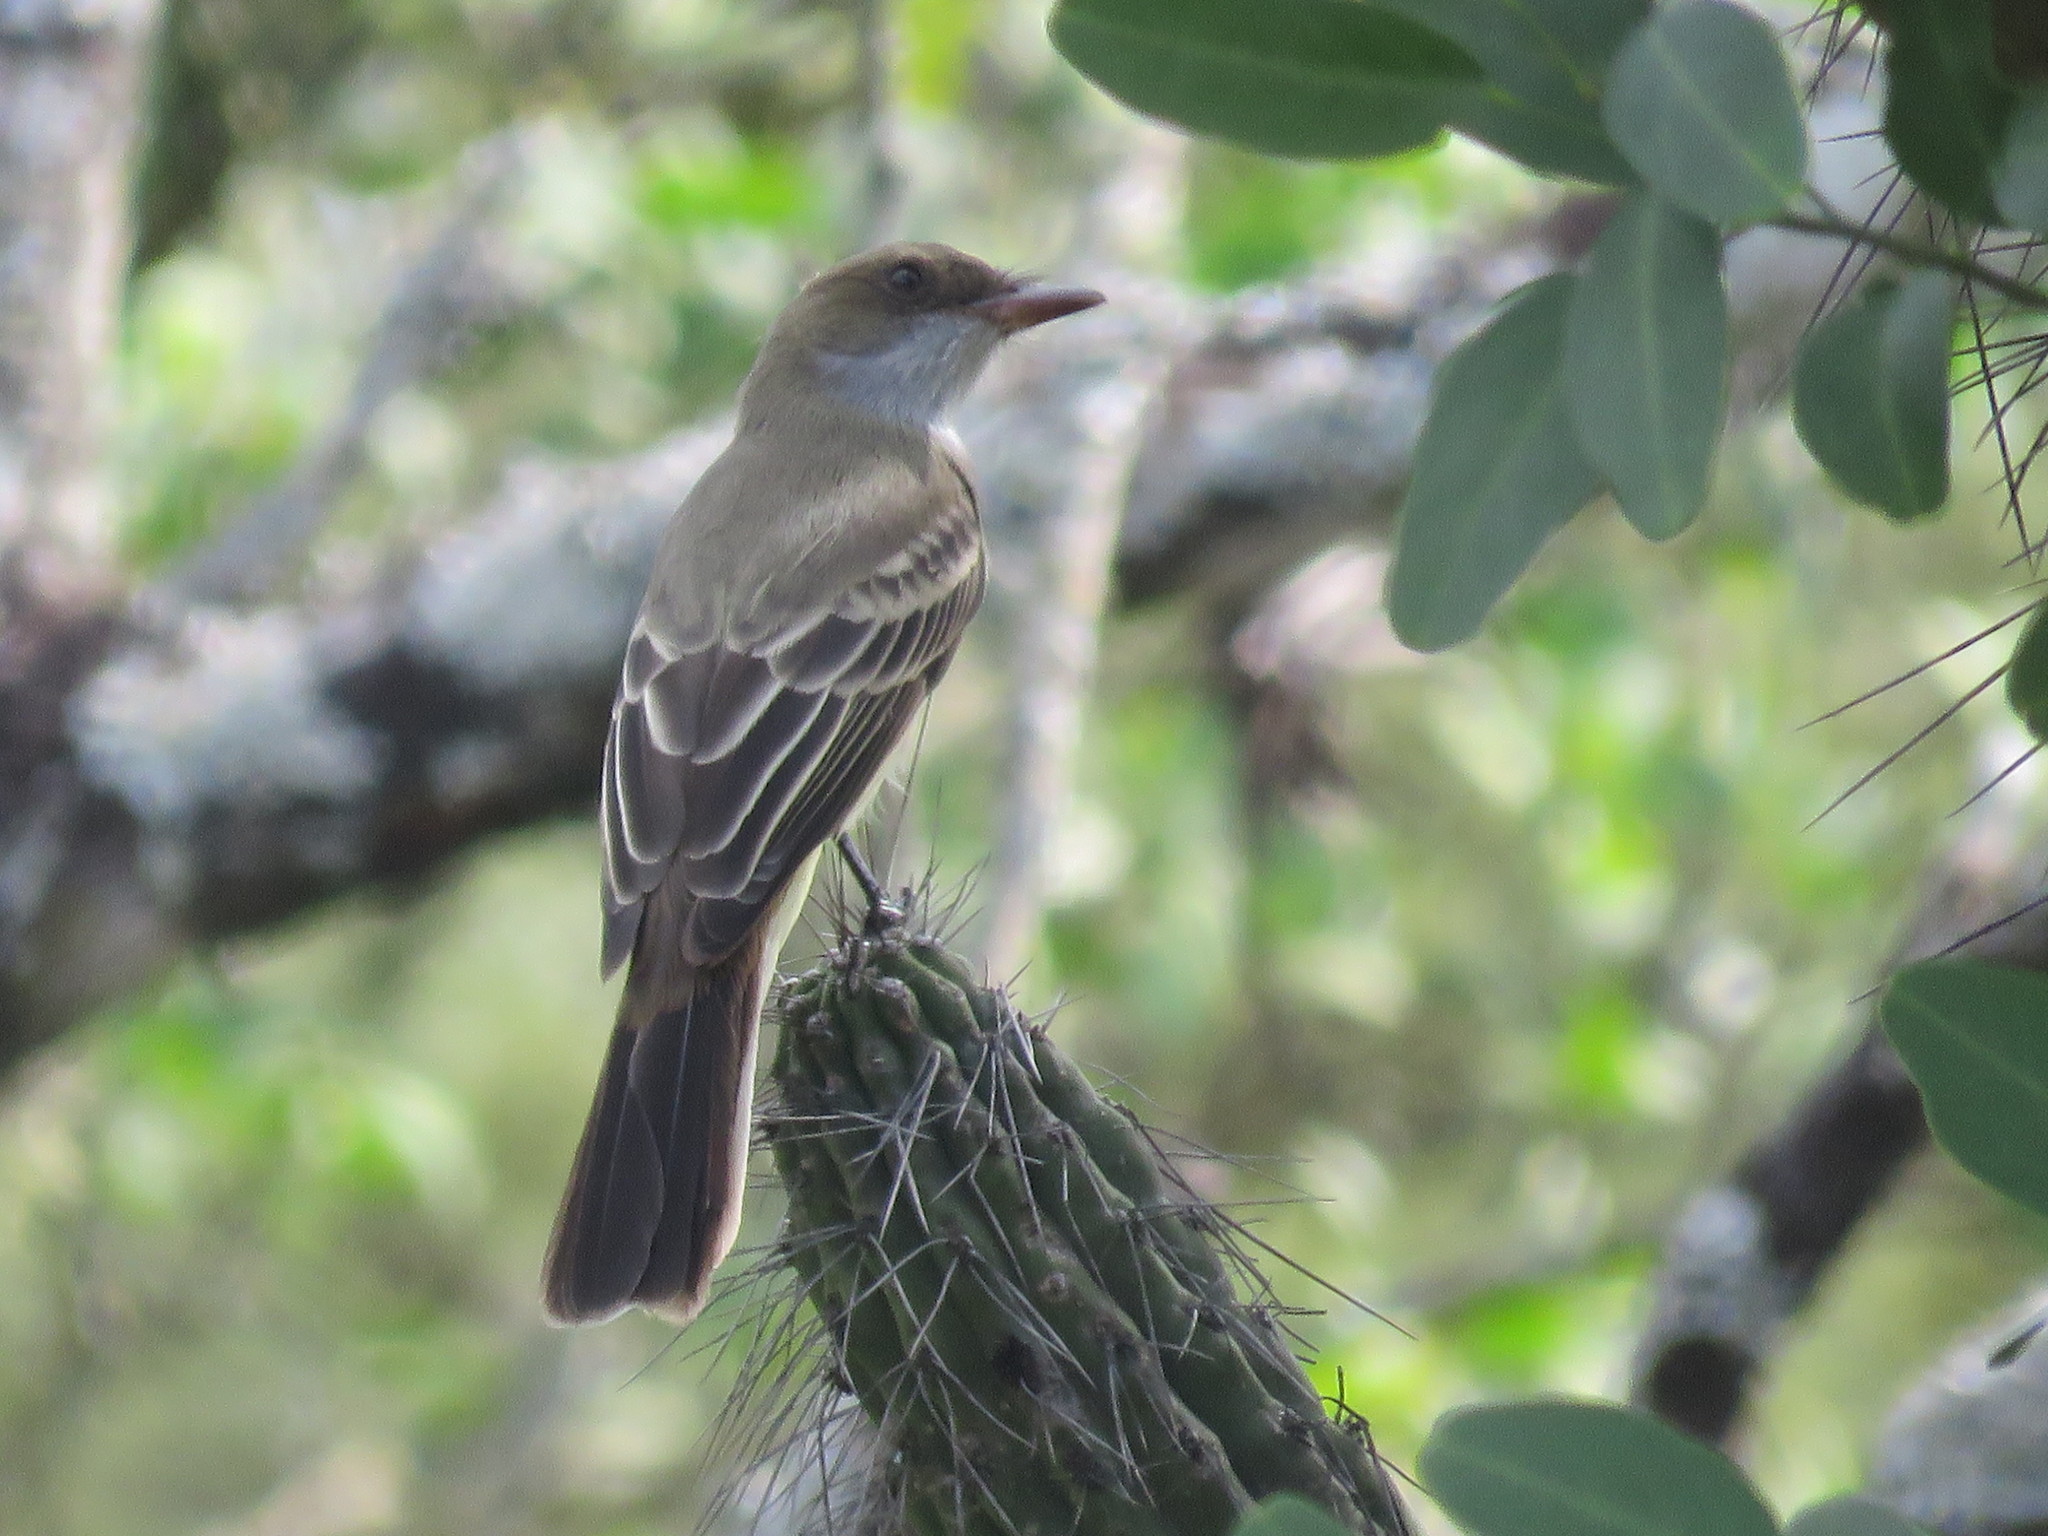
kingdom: Animalia
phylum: Chordata
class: Aves
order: Passeriformes
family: Tyrannidae
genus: Myiarchus
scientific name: Myiarchus tyrannulus
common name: Brown-crested flycatcher
